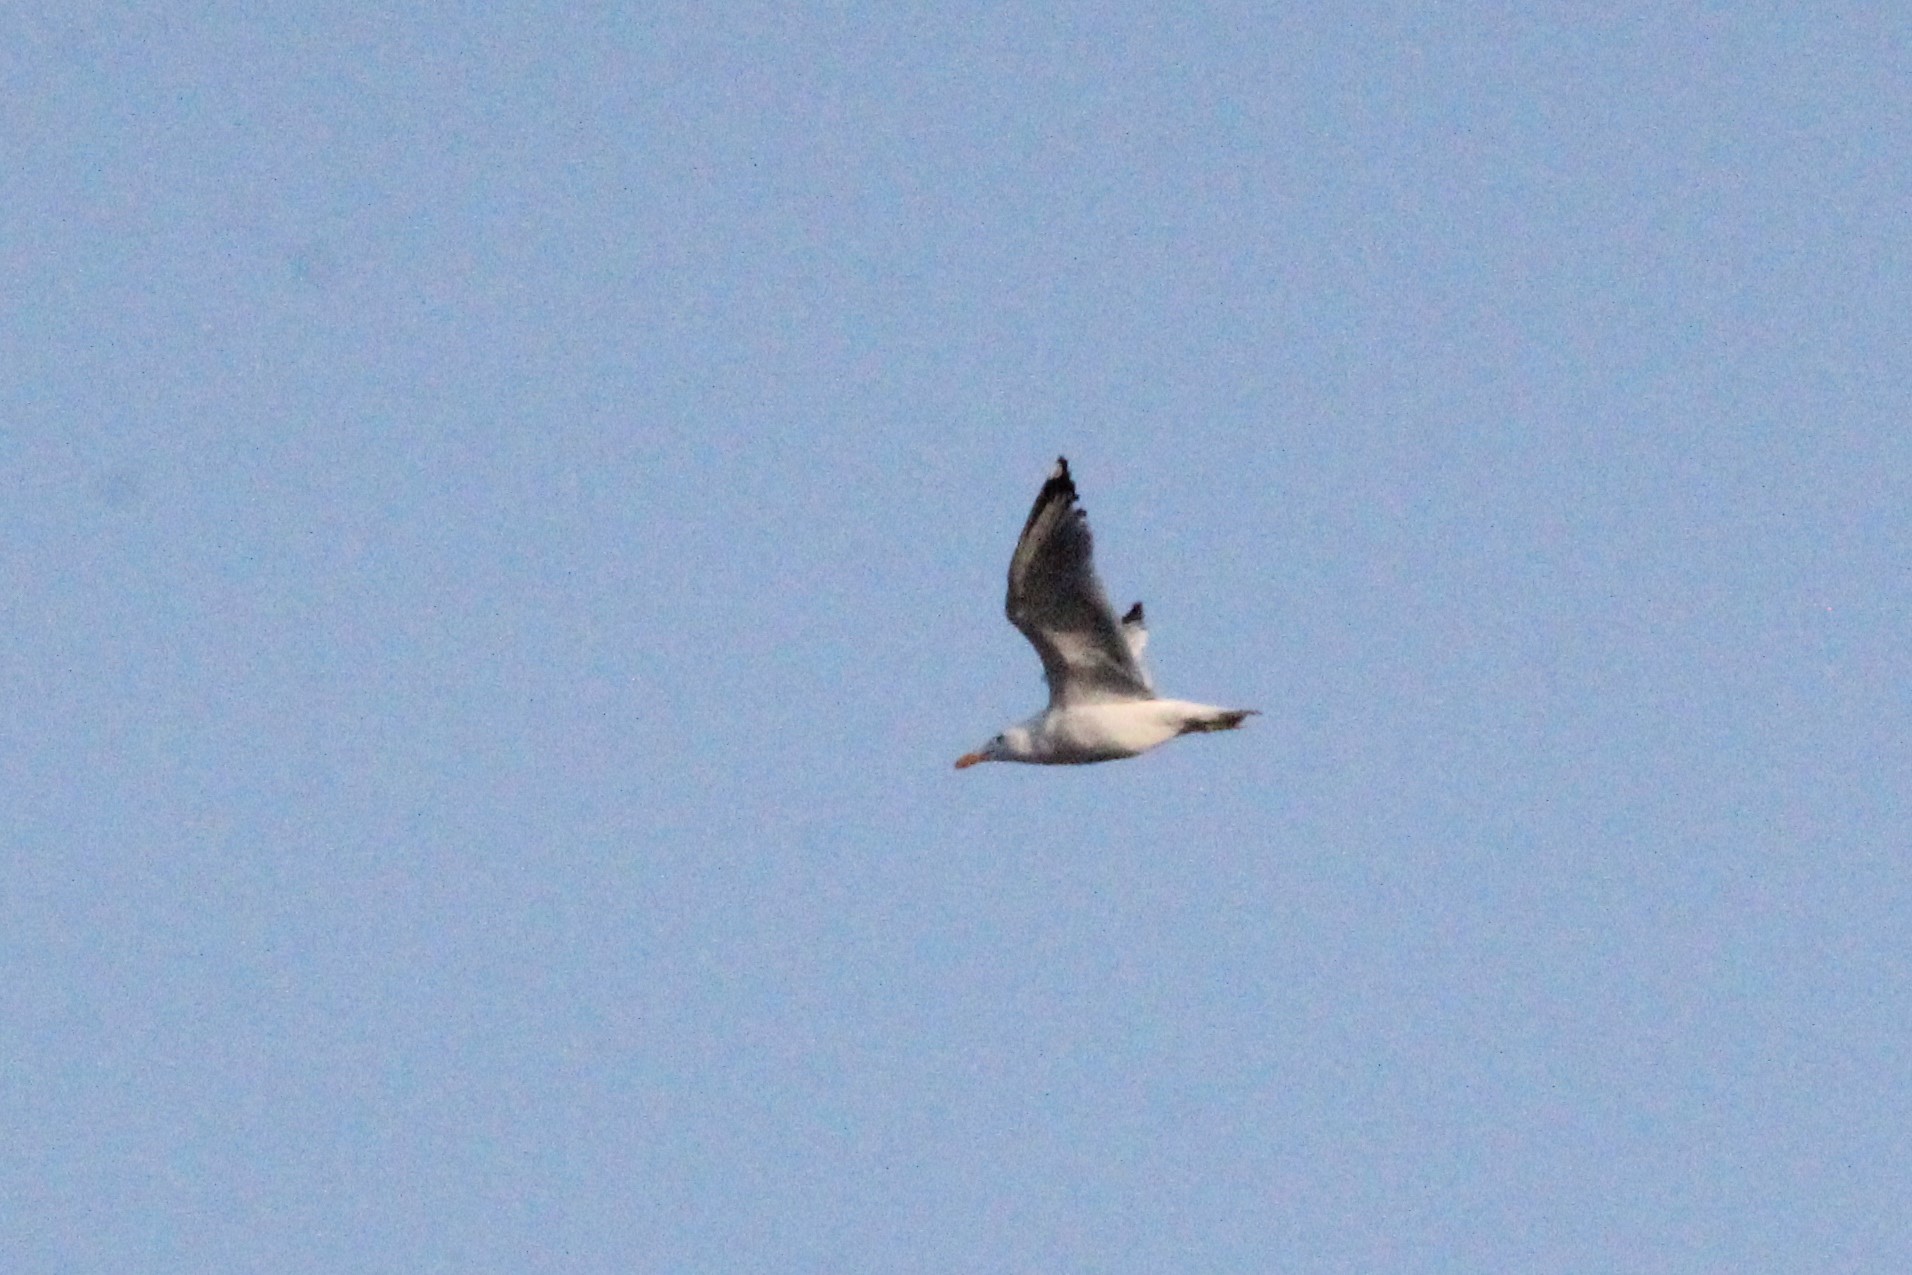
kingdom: Animalia
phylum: Chordata
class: Aves
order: Charadriiformes
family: Laridae
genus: Larus
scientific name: Larus argentatus
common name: Herring gull
